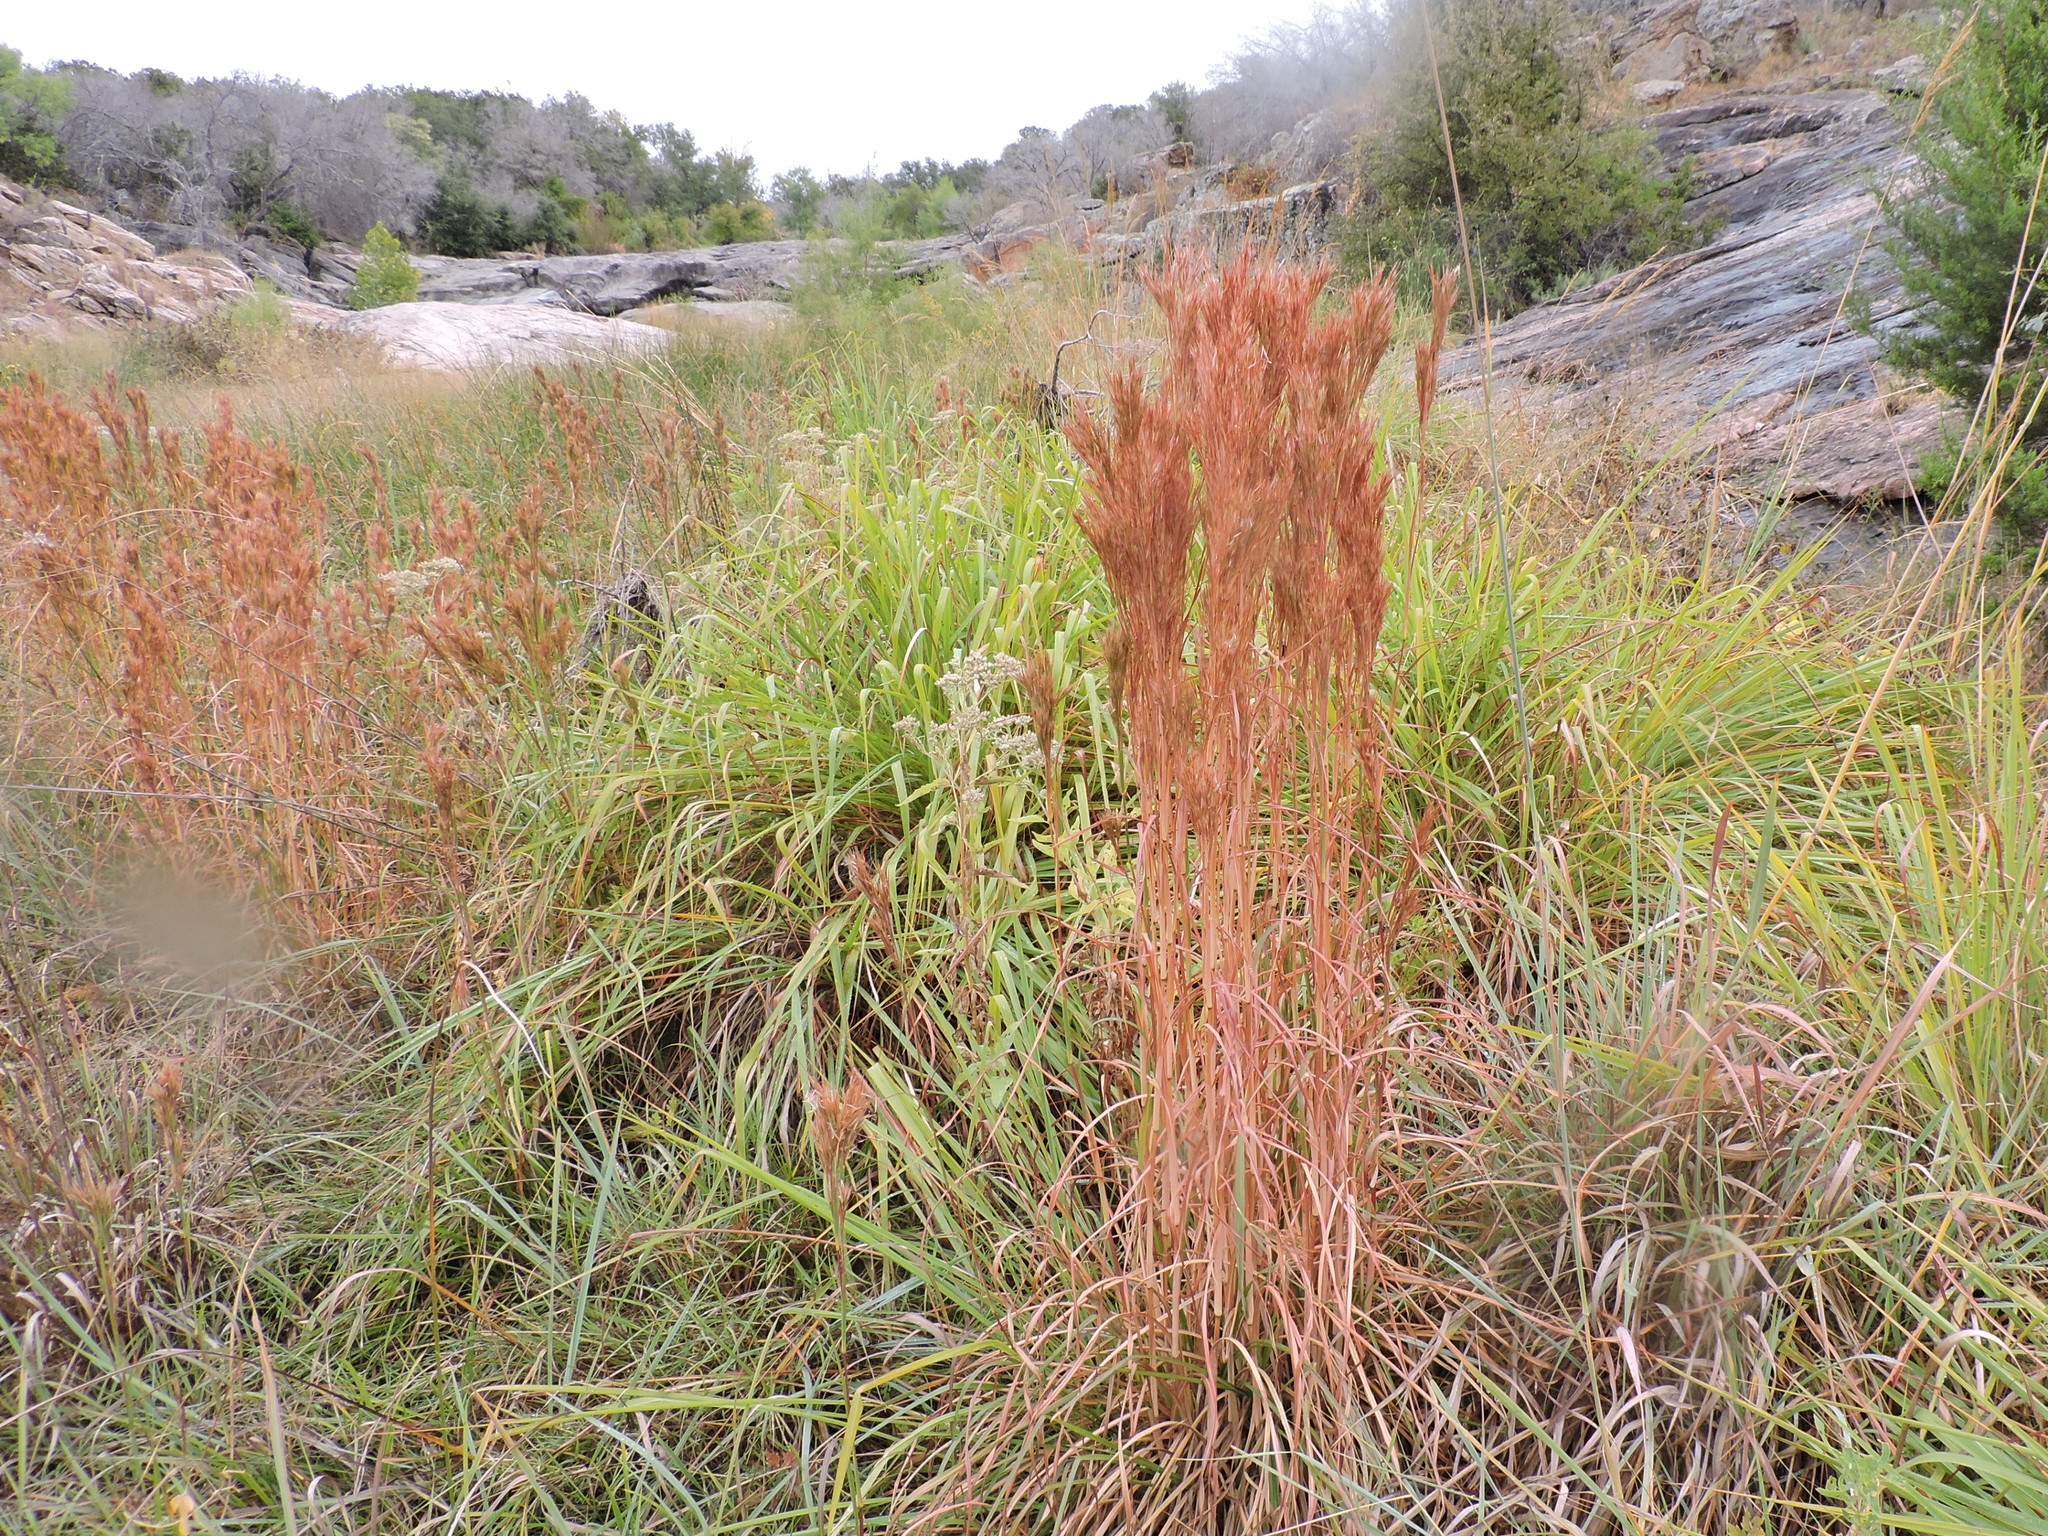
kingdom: Plantae
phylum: Tracheophyta
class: Liliopsida
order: Poales
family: Poaceae
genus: Andropogon
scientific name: Andropogon tenuispatheus
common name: Bushy bluestem
